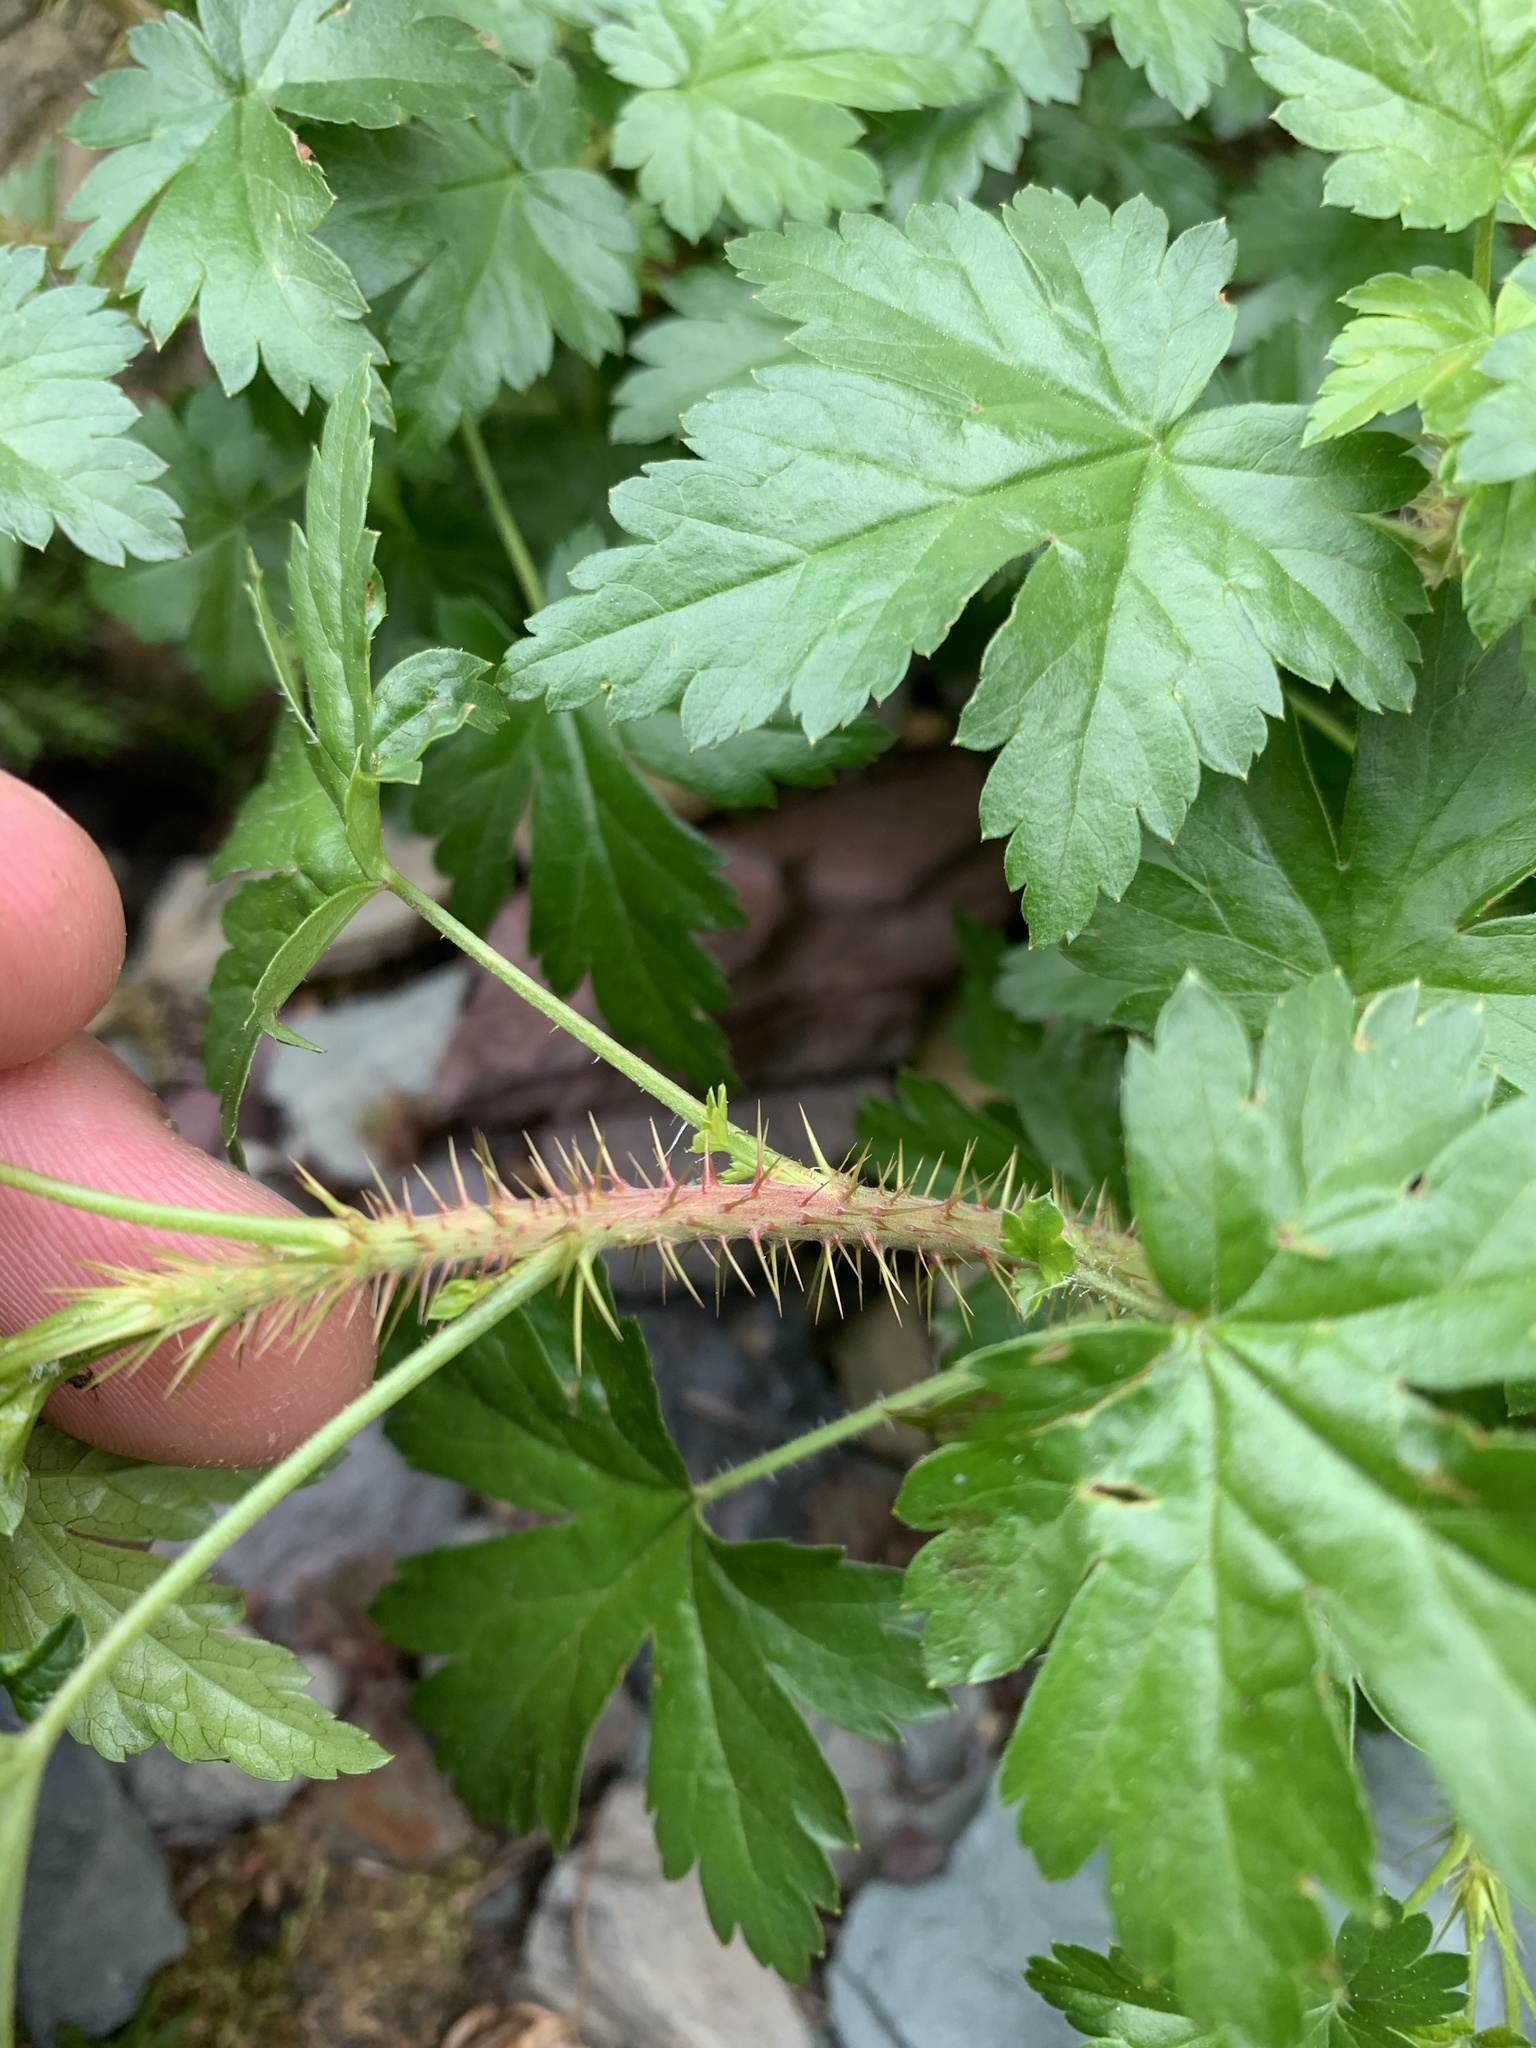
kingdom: Plantae
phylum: Tracheophyta
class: Magnoliopsida
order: Saxifragales
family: Grossulariaceae
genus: Ribes
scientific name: Ribes lacustre
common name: Black gooseberry
